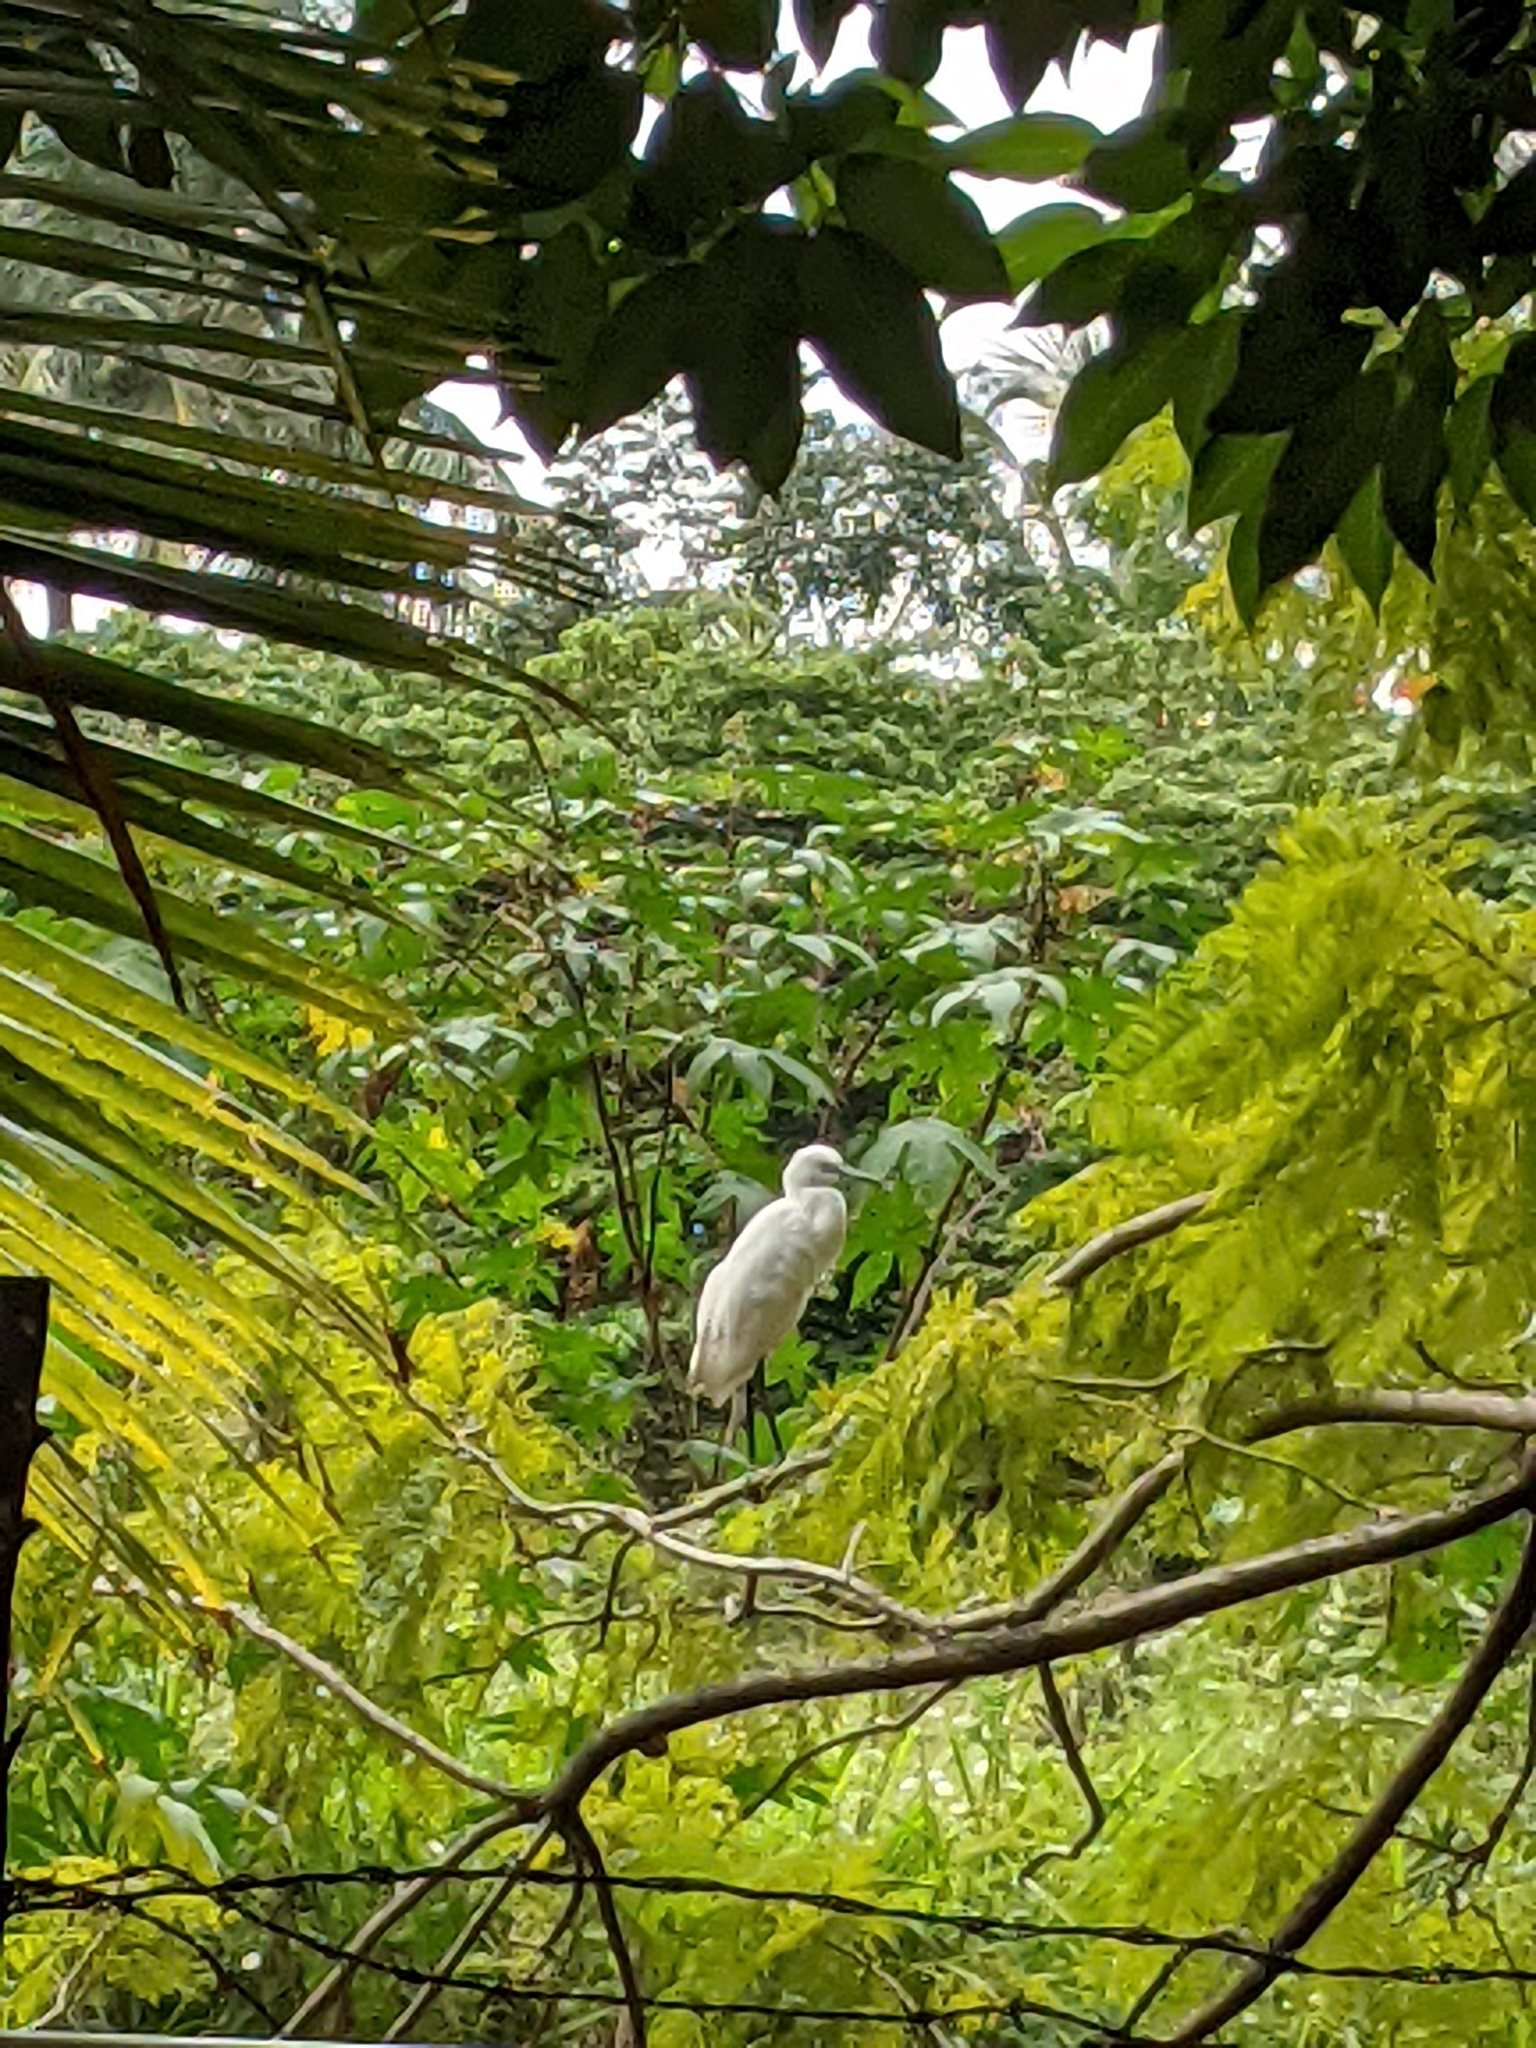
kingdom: Animalia
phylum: Chordata
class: Aves
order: Pelecaniformes
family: Ardeidae
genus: Egretta
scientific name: Egretta garzetta
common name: Little egret
